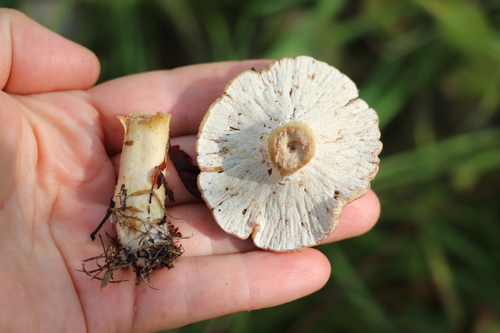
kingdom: Fungi
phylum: Ascomycota
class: Sordariomycetes
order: Hypocreales
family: Hypocreaceae
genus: Hypomyces
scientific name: Hypomyces lateritius
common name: Ochre gillgobbler
